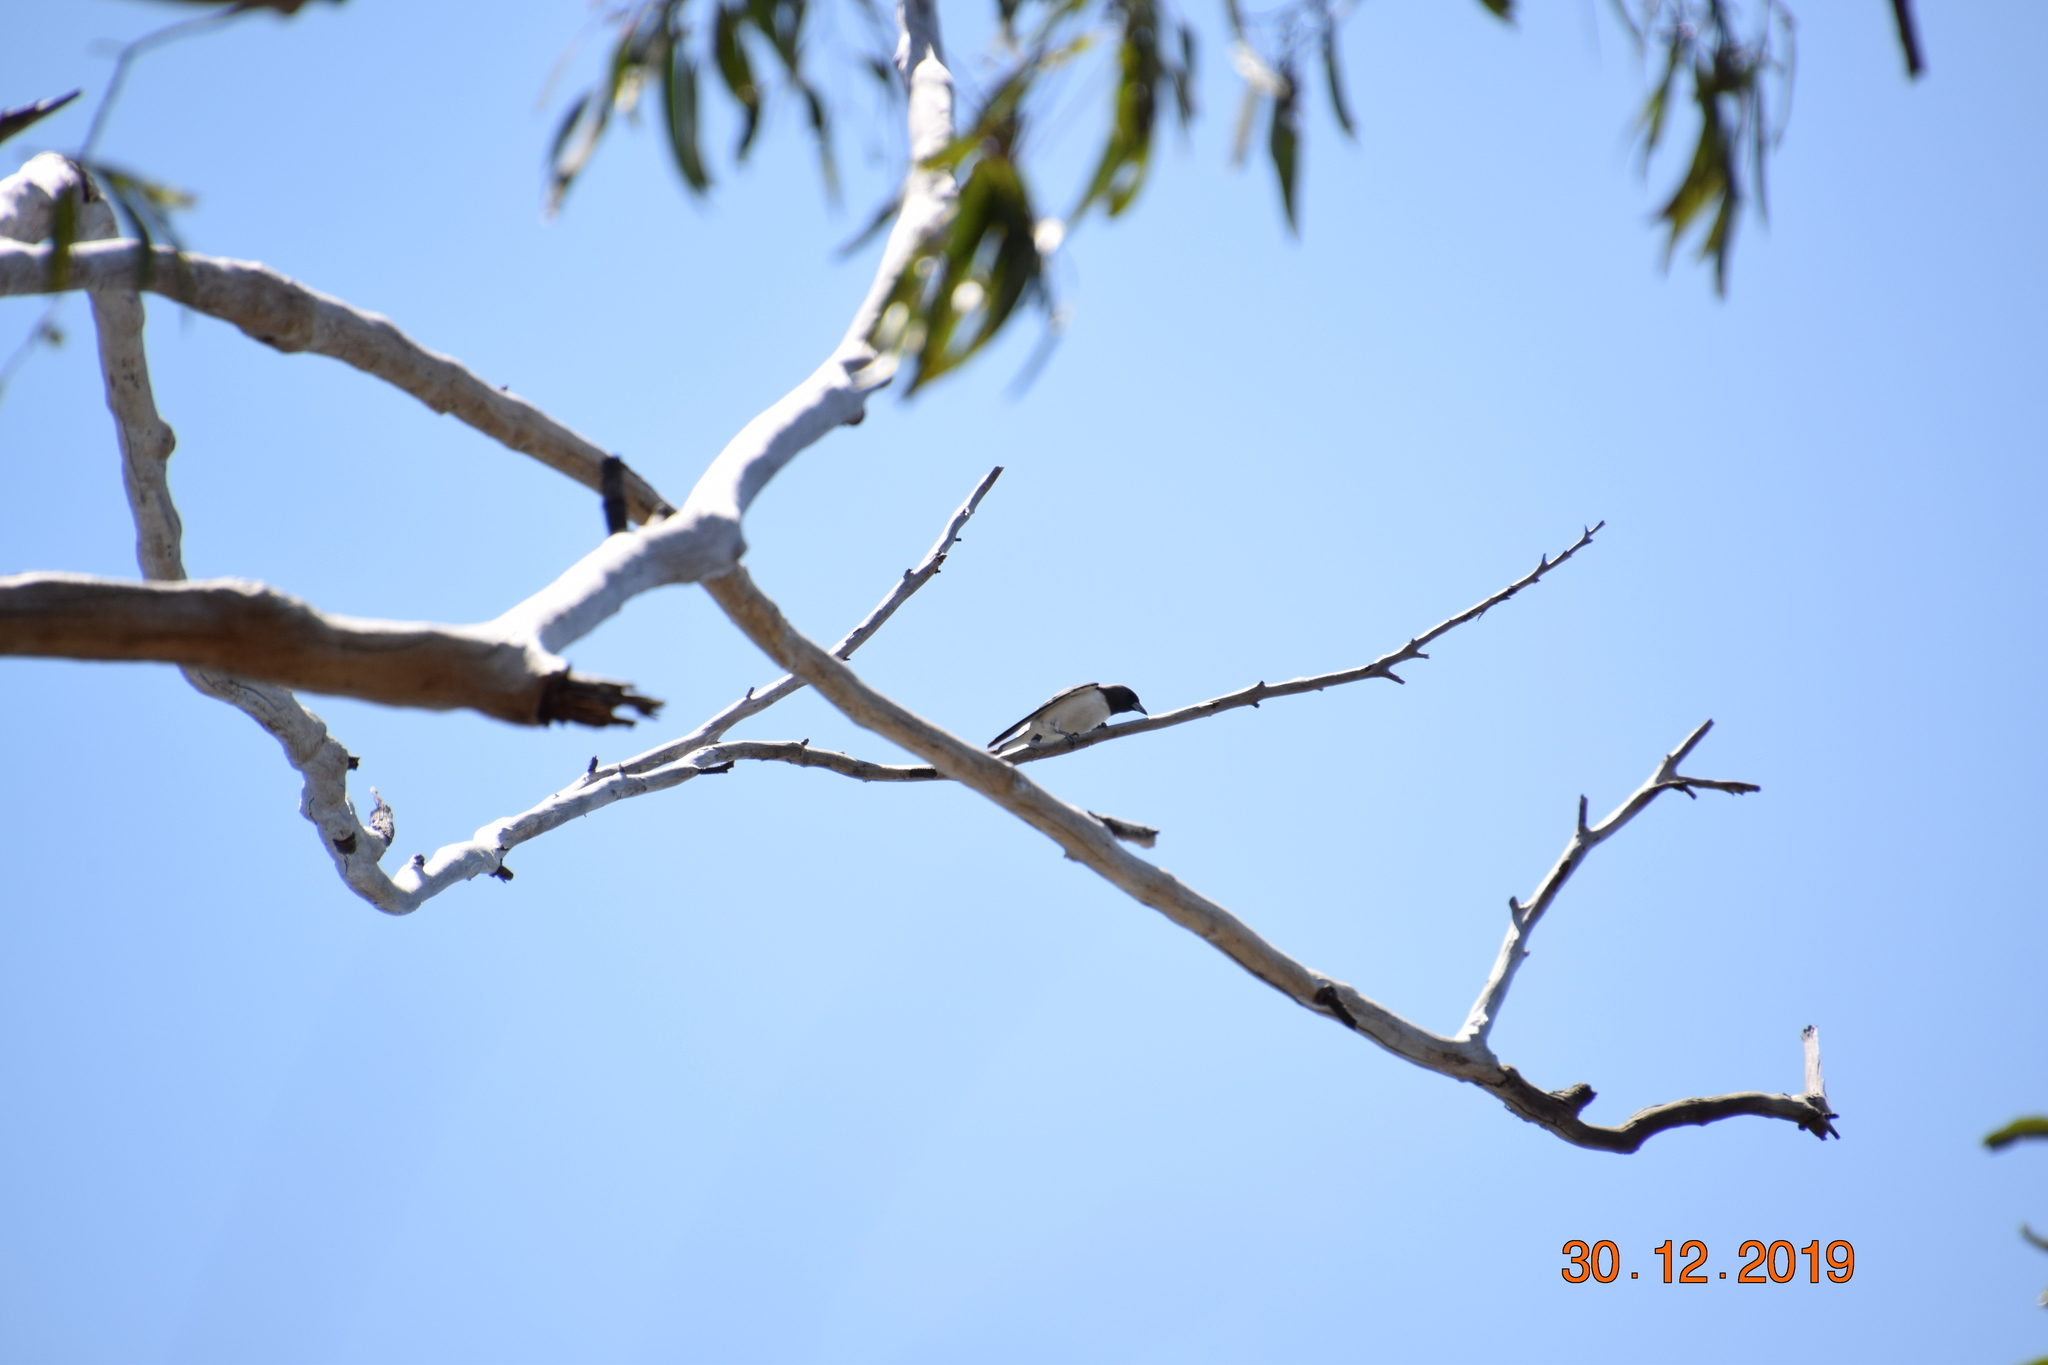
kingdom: Animalia
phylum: Chordata
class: Aves
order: Passeriformes
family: Artamidae
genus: Artamus
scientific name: Artamus leucoryn
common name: White-breasted woodswallow
